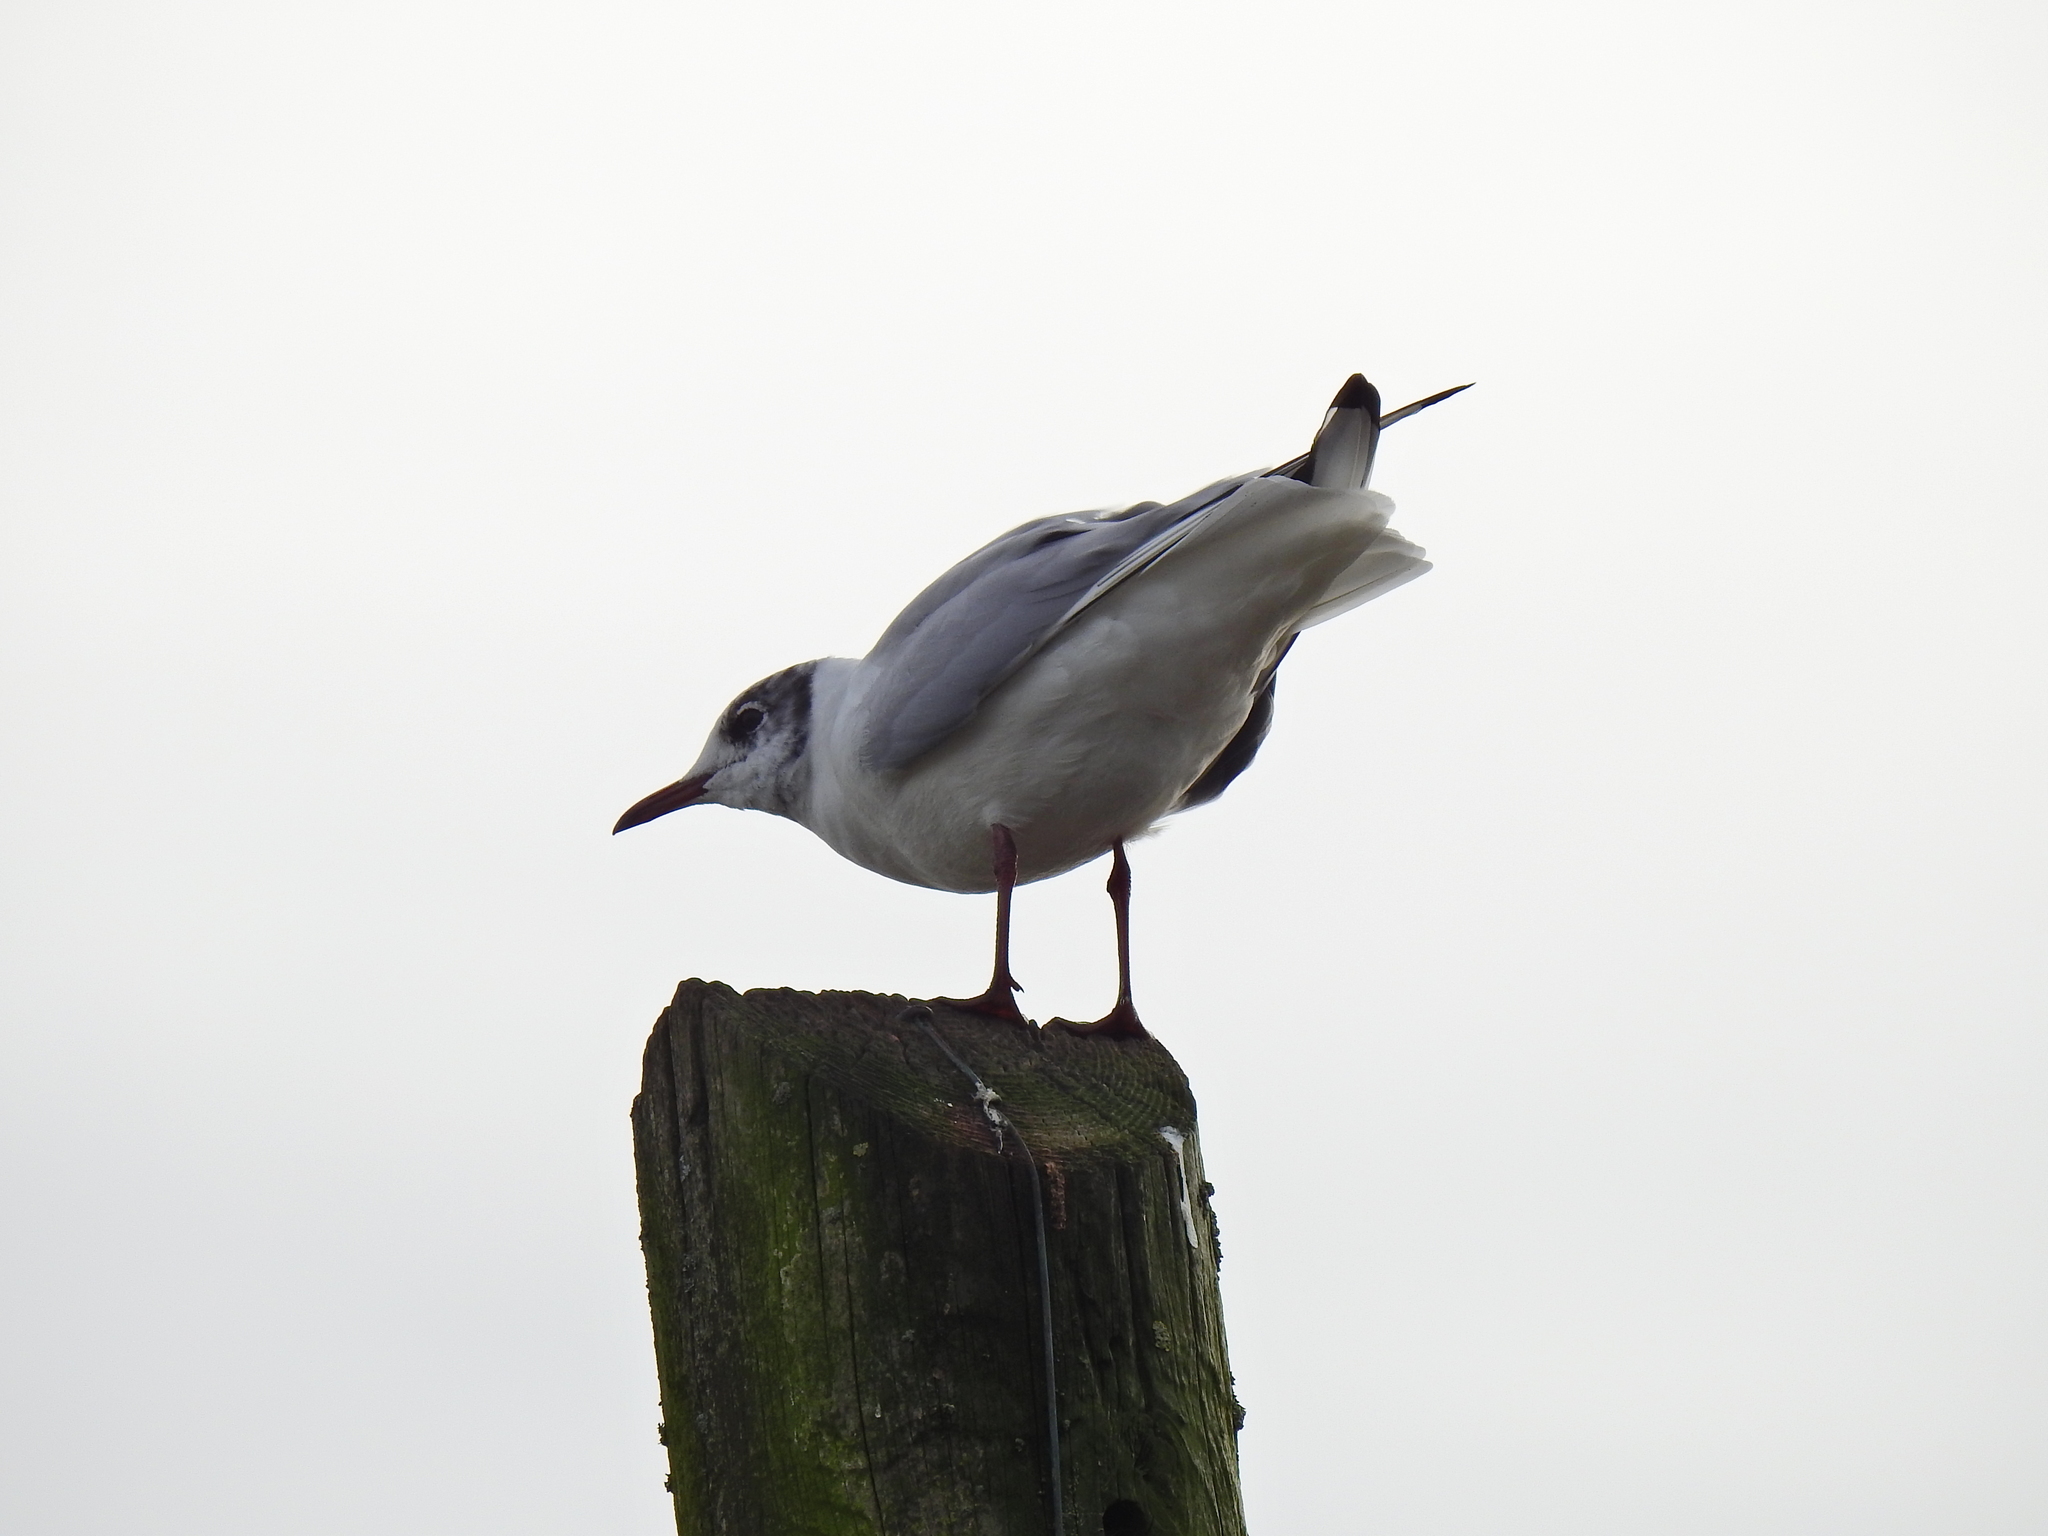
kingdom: Animalia
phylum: Chordata
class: Aves
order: Charadriiformes
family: Laridae
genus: Chroicocephalus
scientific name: Chroicocephalus ridibundus
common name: Black-headed gull
